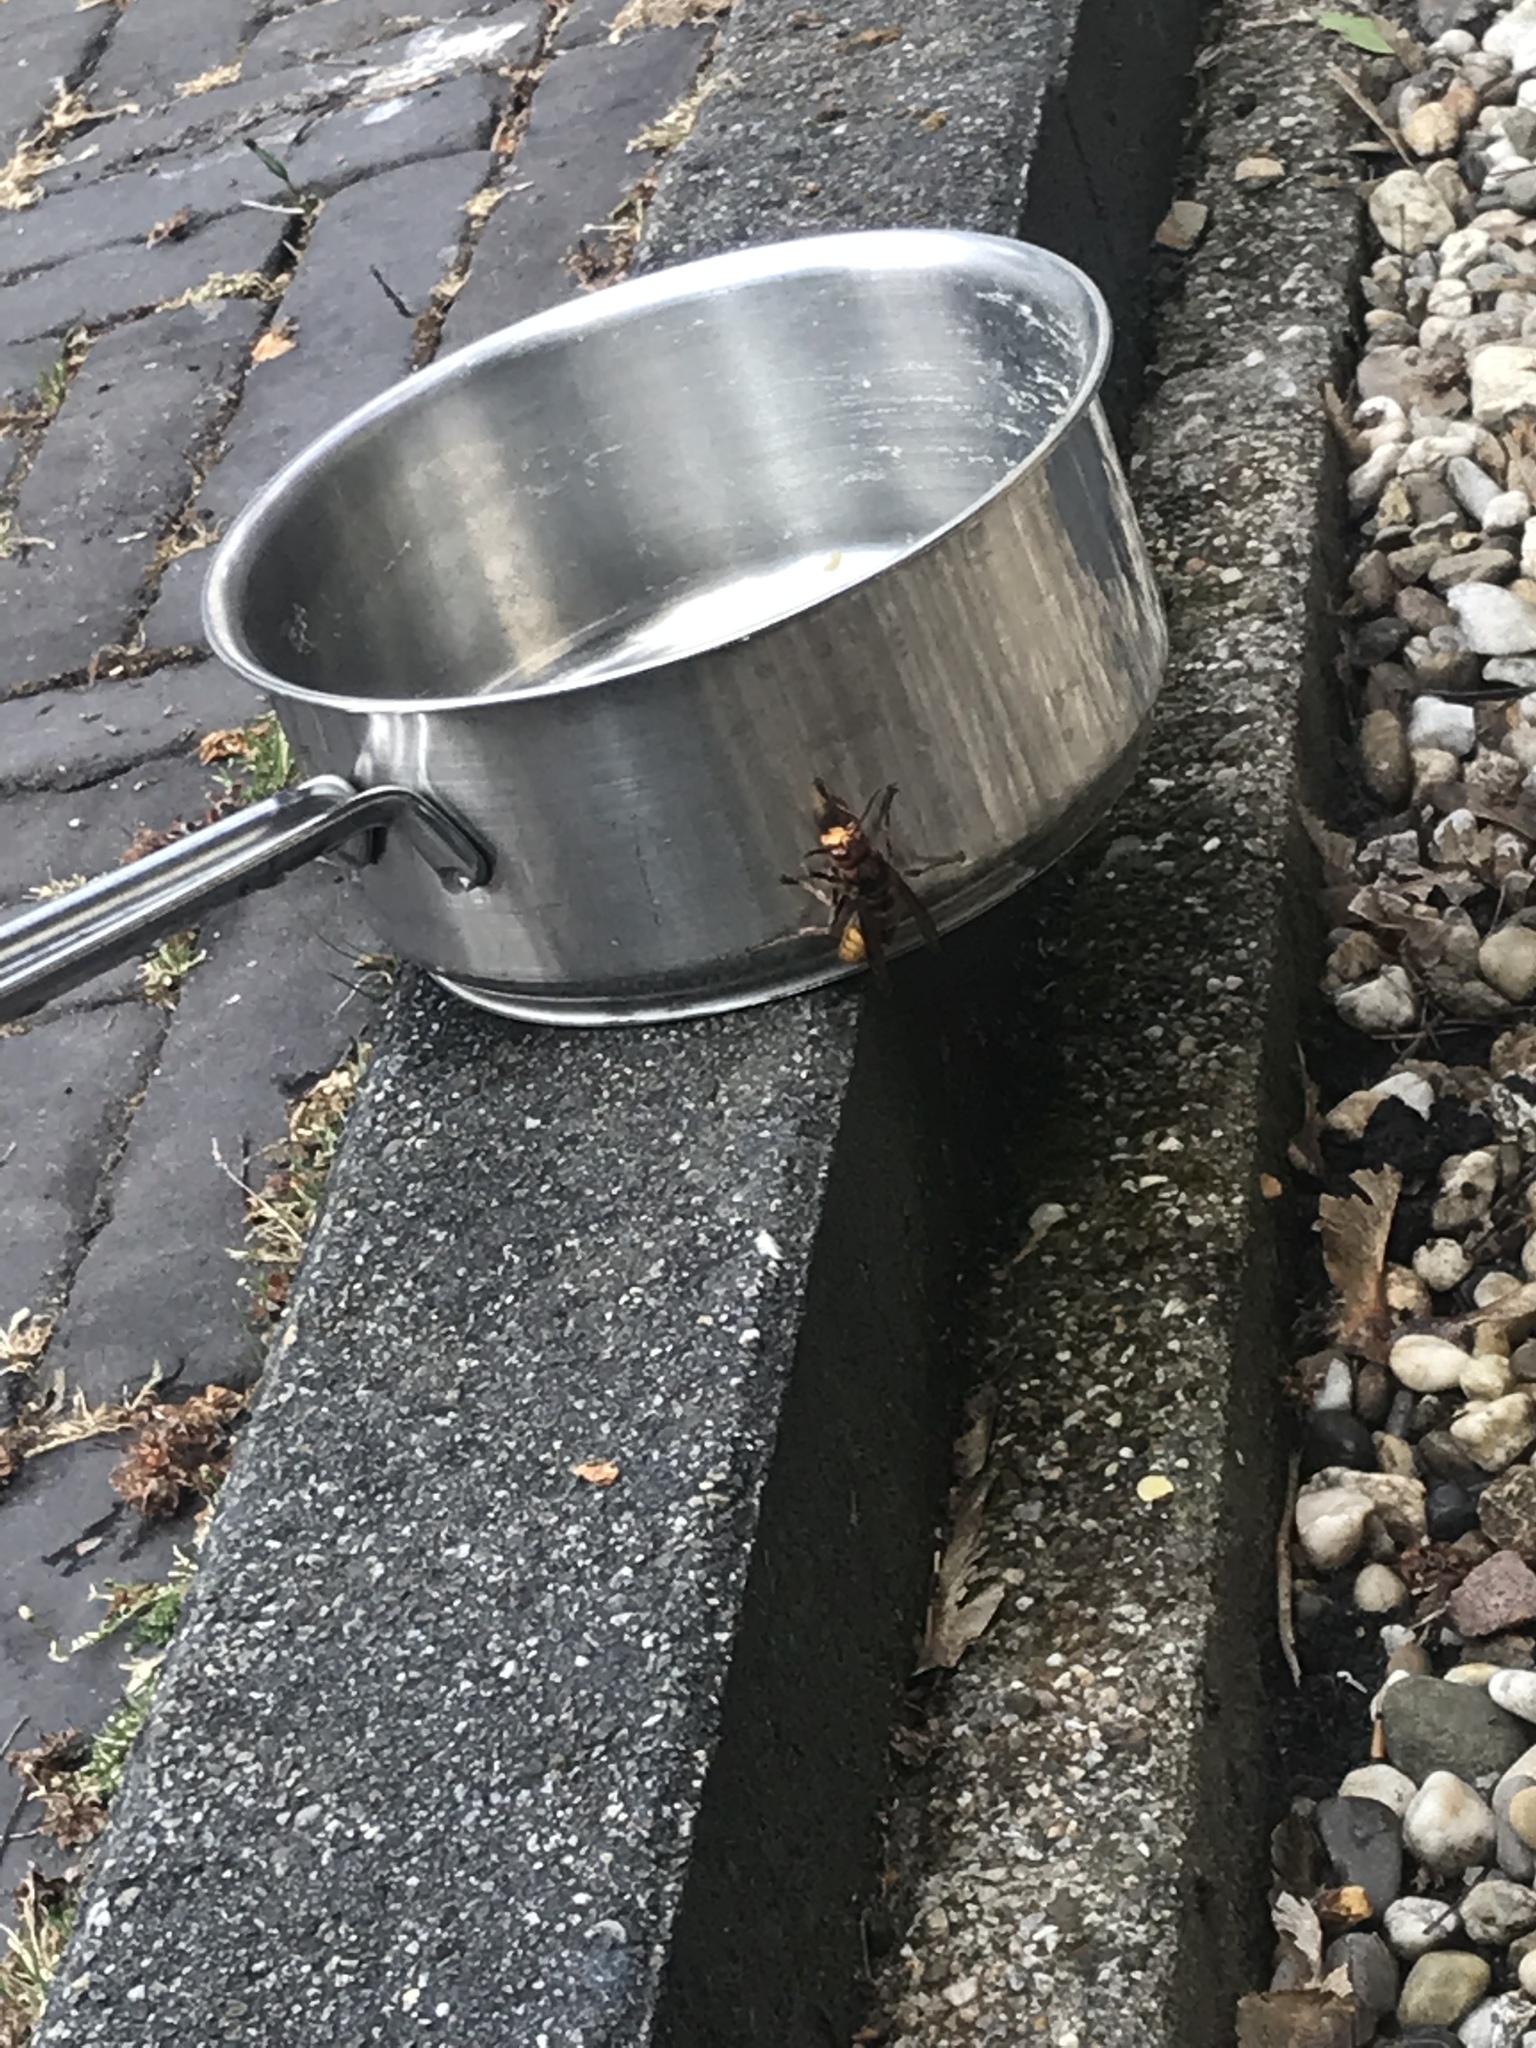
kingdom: Animalia
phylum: Arthropoda
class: Insecta
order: Hymenoptera
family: Vespidae
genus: Vespa
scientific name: Vespa crabro
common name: Hornet
